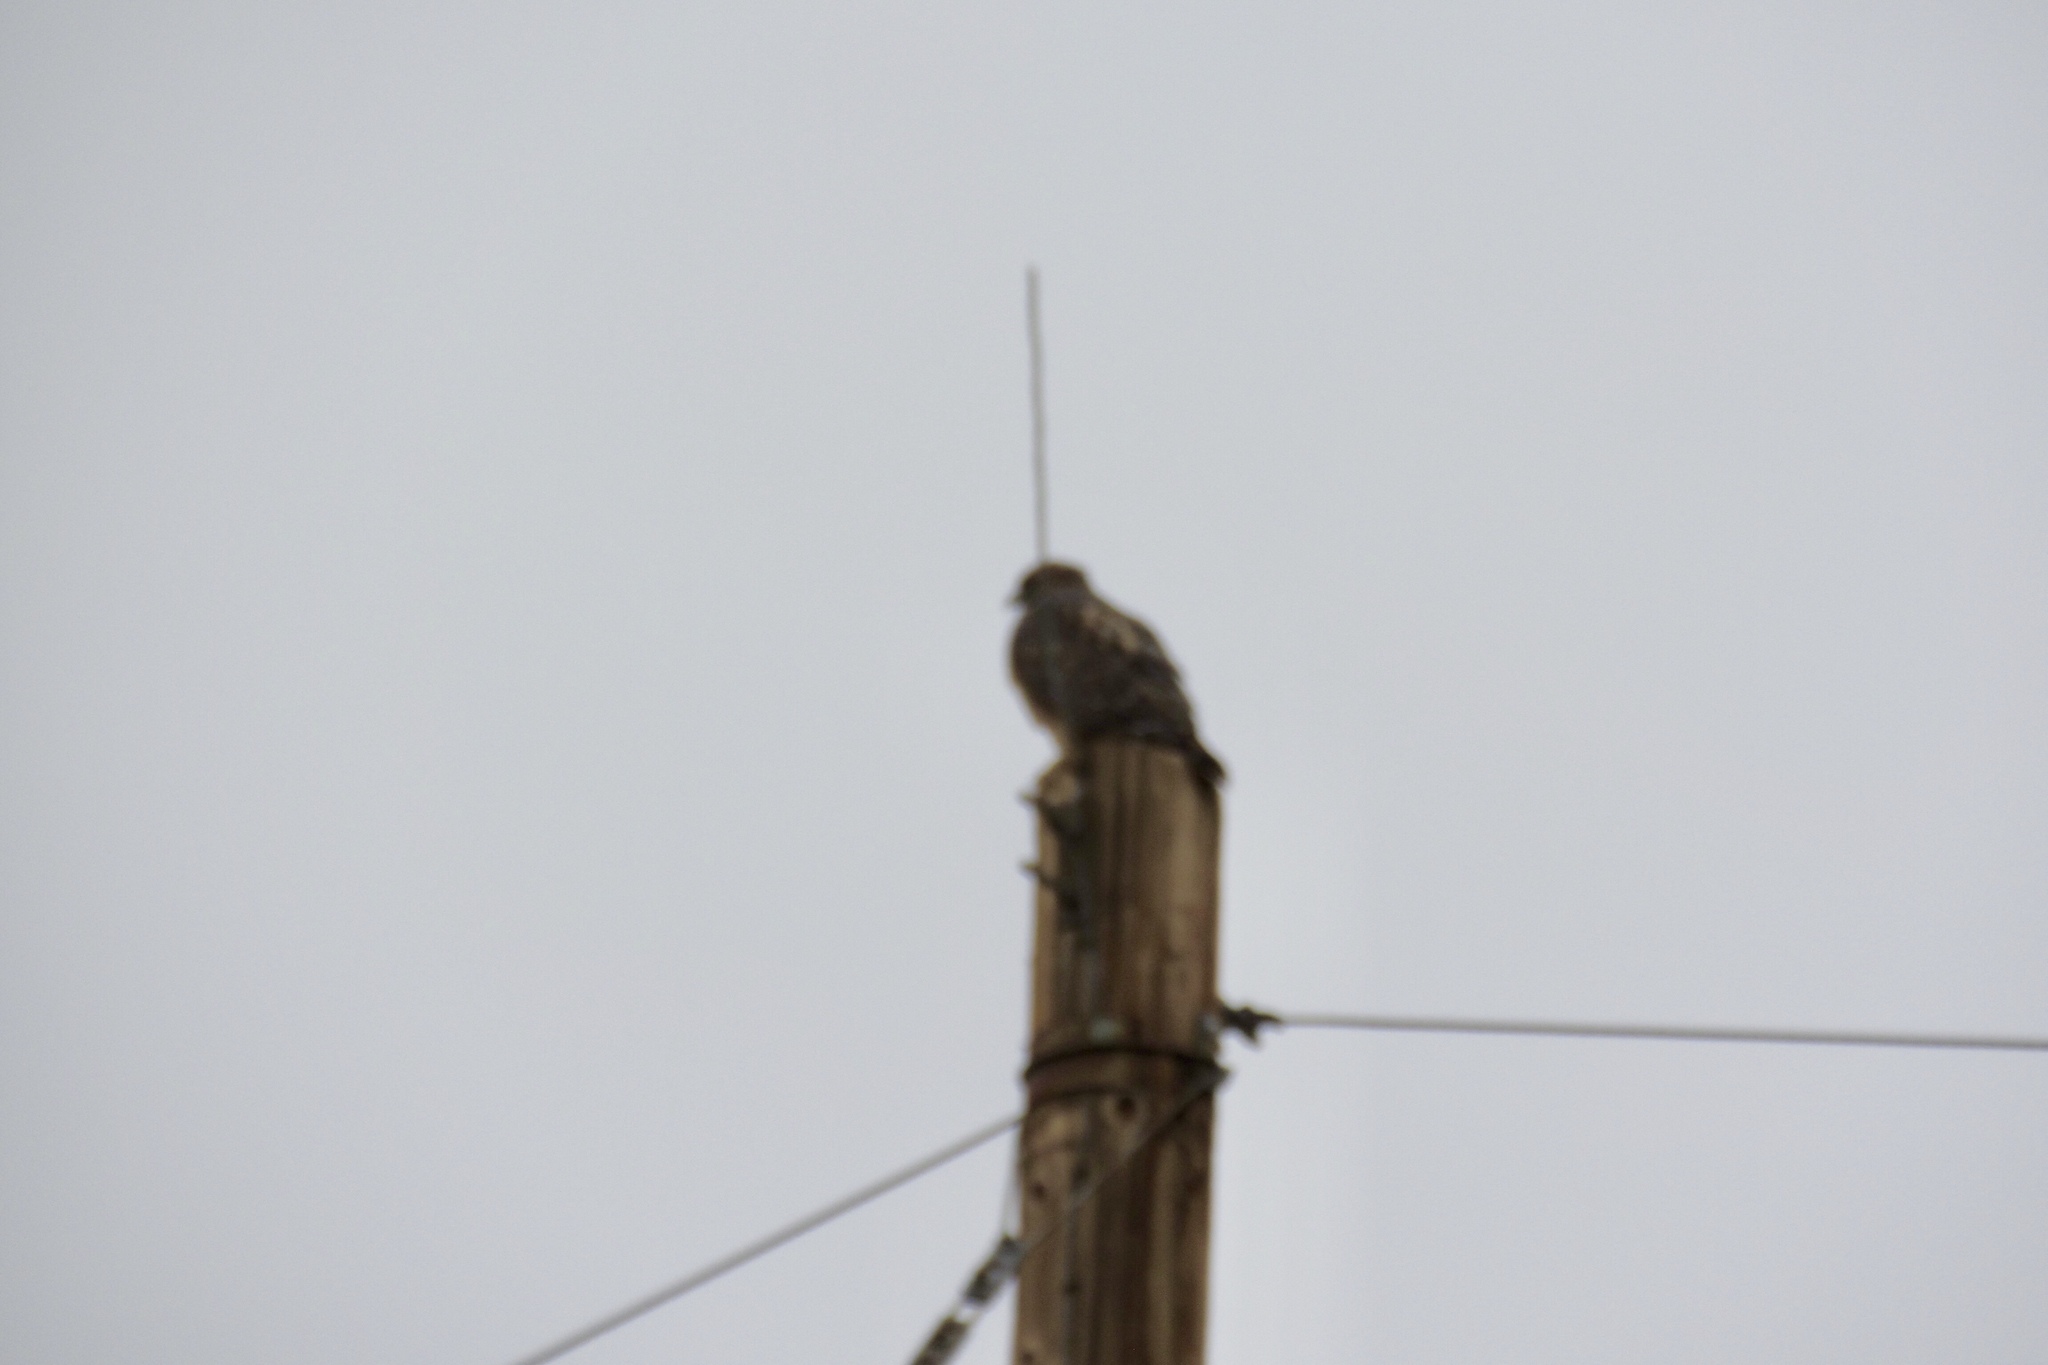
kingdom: Animalia
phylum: Chordata
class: Aves
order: Accipitriformes
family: Accipitridae
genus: Buteo
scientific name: Buteo jamaicensis
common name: Red-tailed hawk
